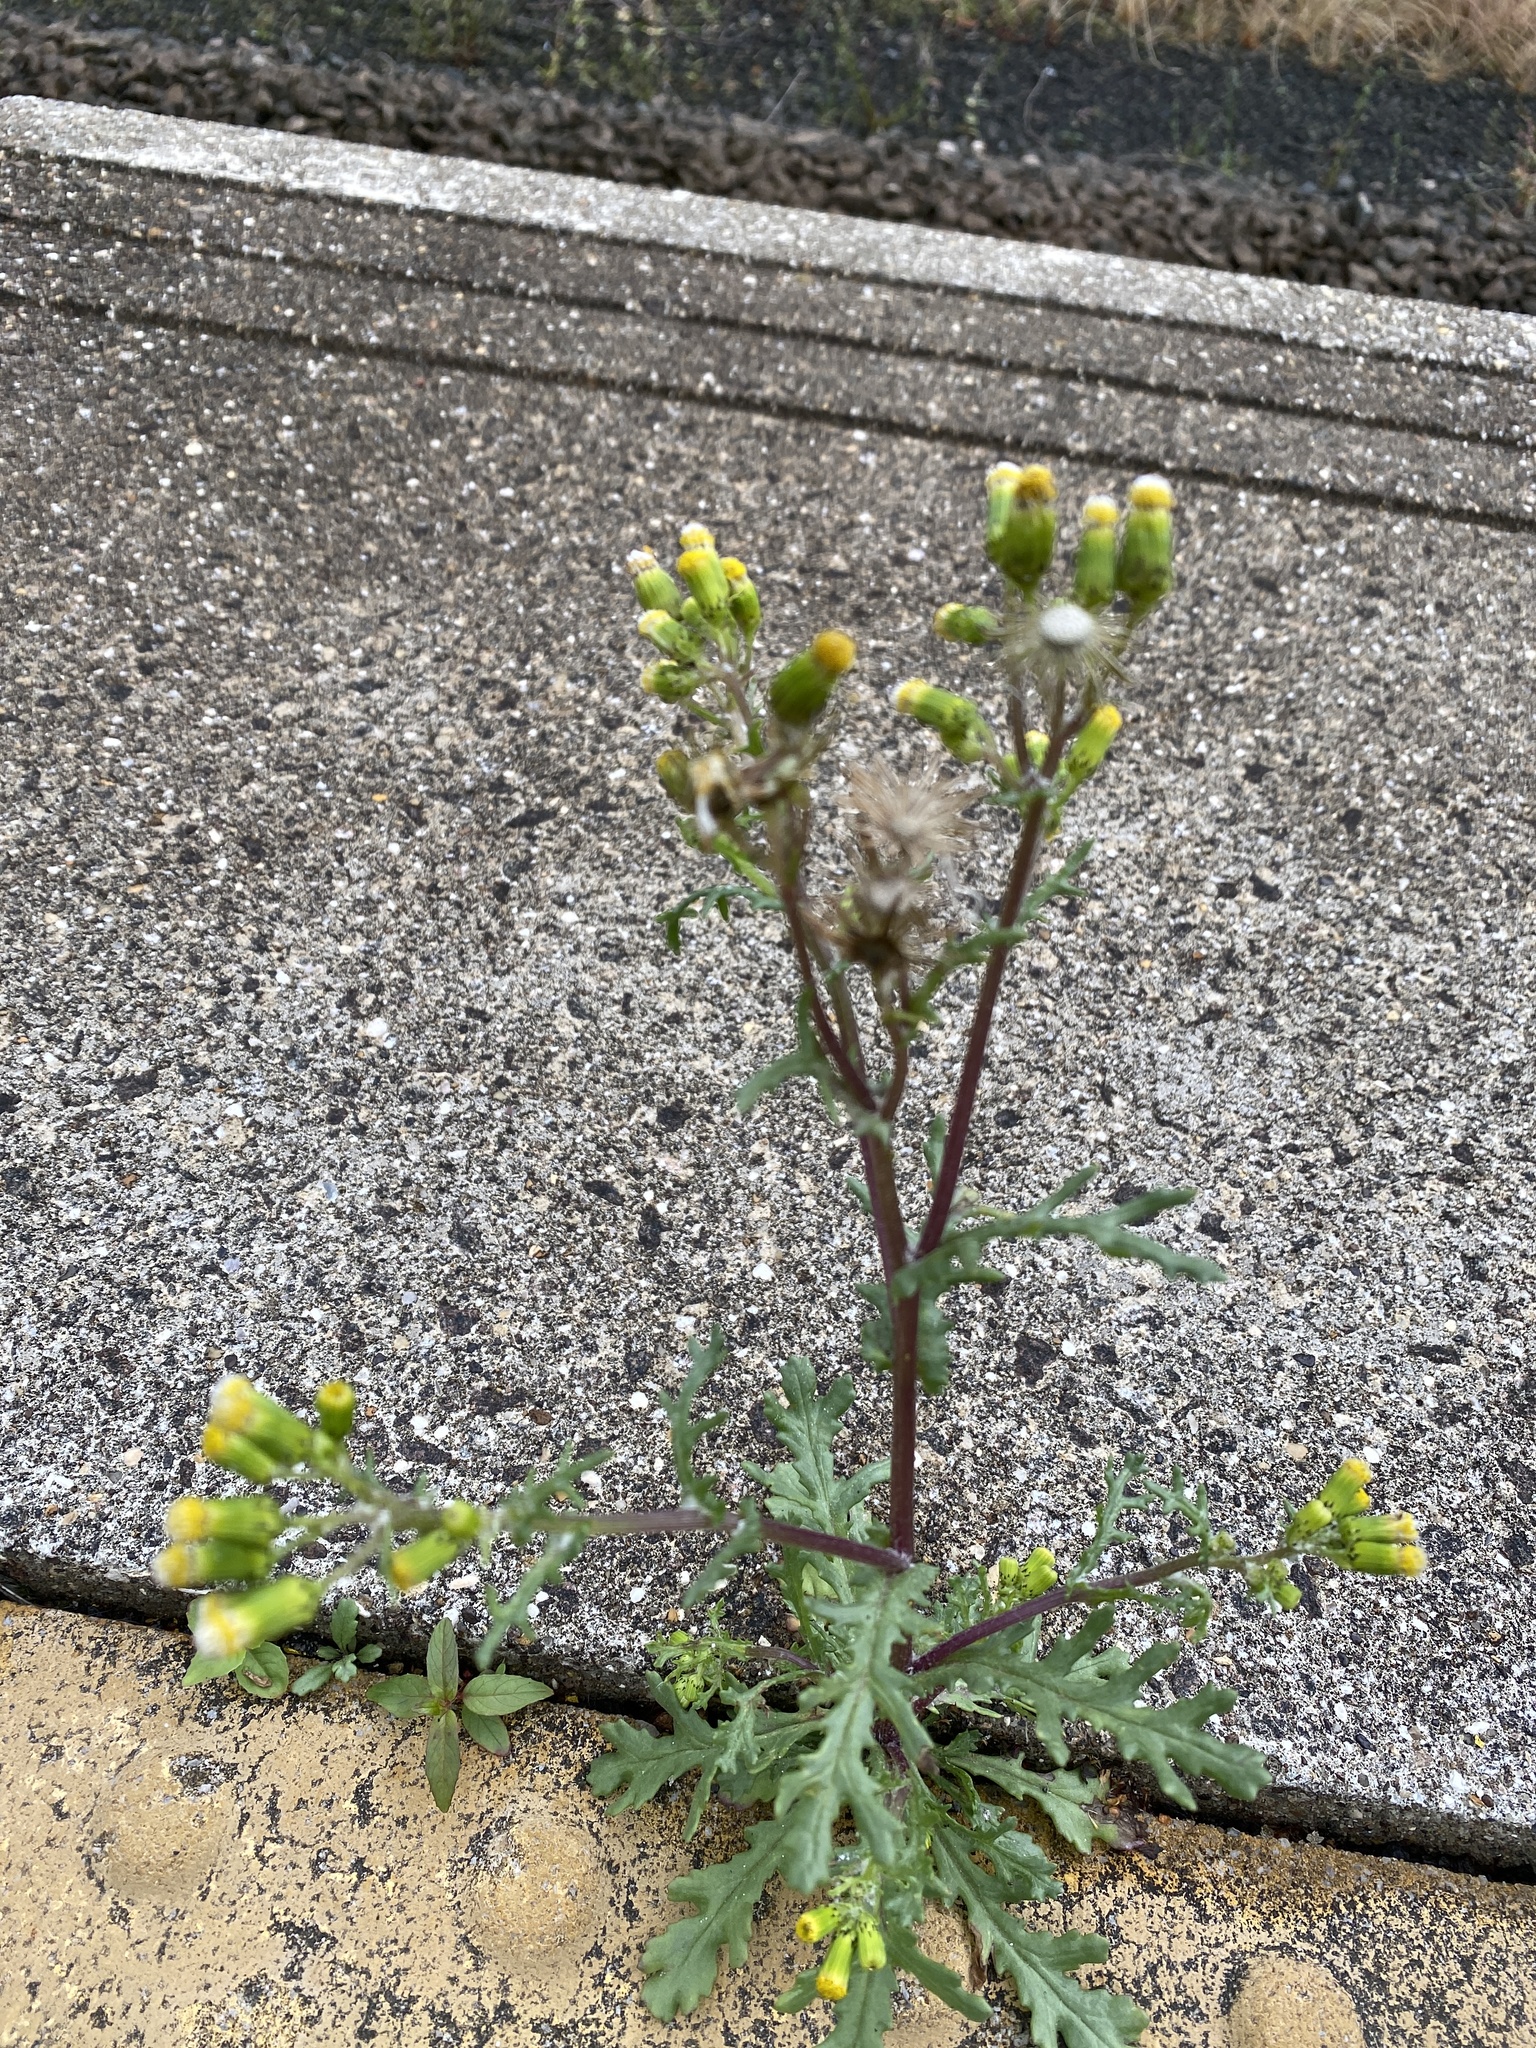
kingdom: Plantae
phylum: Tracheophyta
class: Magnoliopsida
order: Asterales
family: Asteraceae
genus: Senecio
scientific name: Senecio vulgaris
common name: Old-man-in-the-spring
